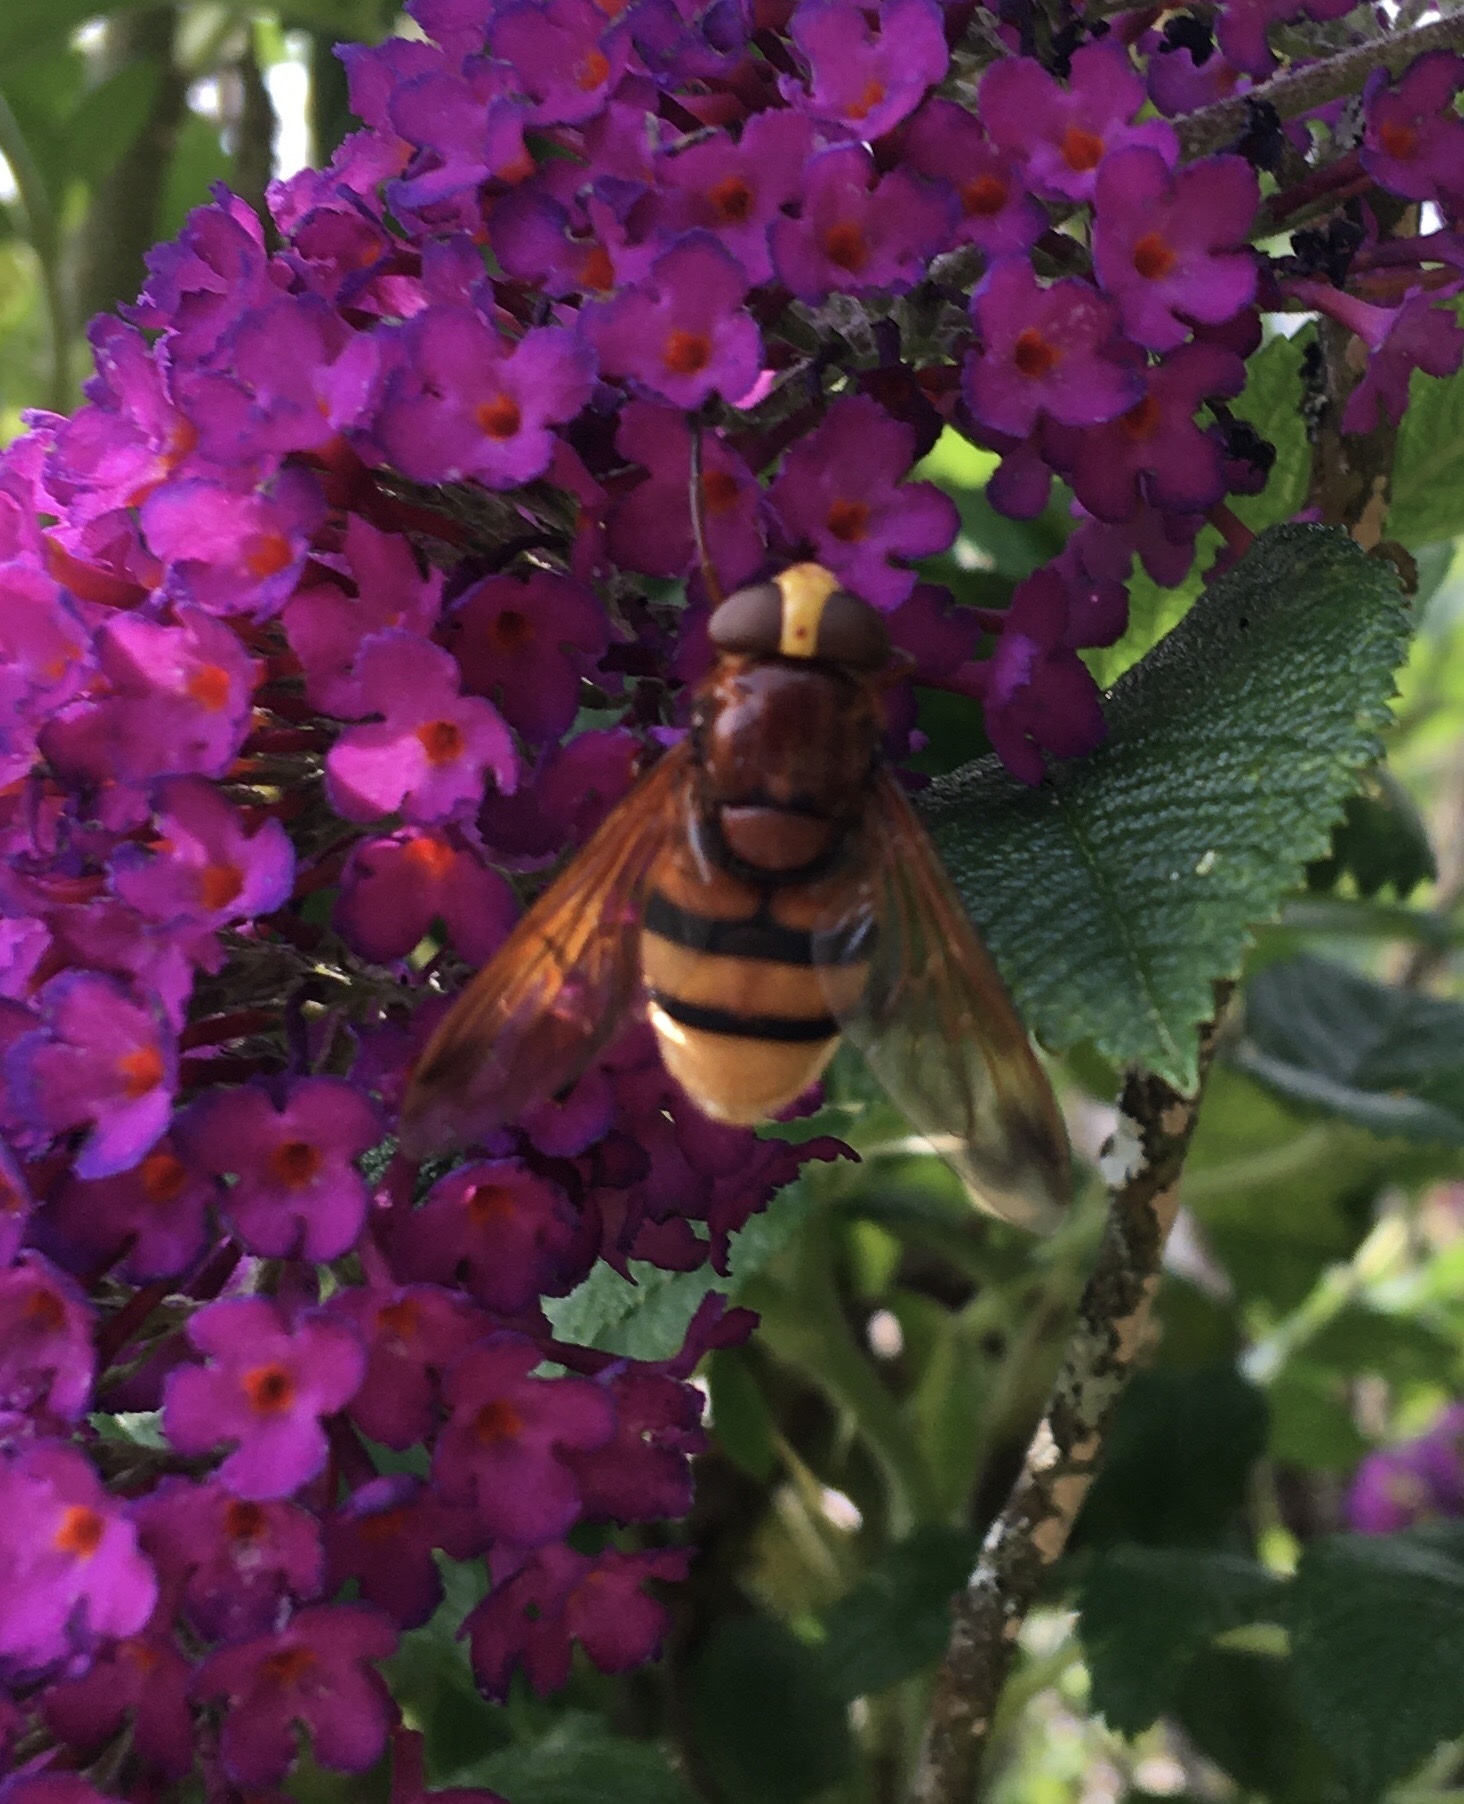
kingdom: Animalia
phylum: Arthropoda
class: Insecta
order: Diptera
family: Syrphidae
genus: Volucella
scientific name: Volucella zonaria
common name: Hornet hoverfly
